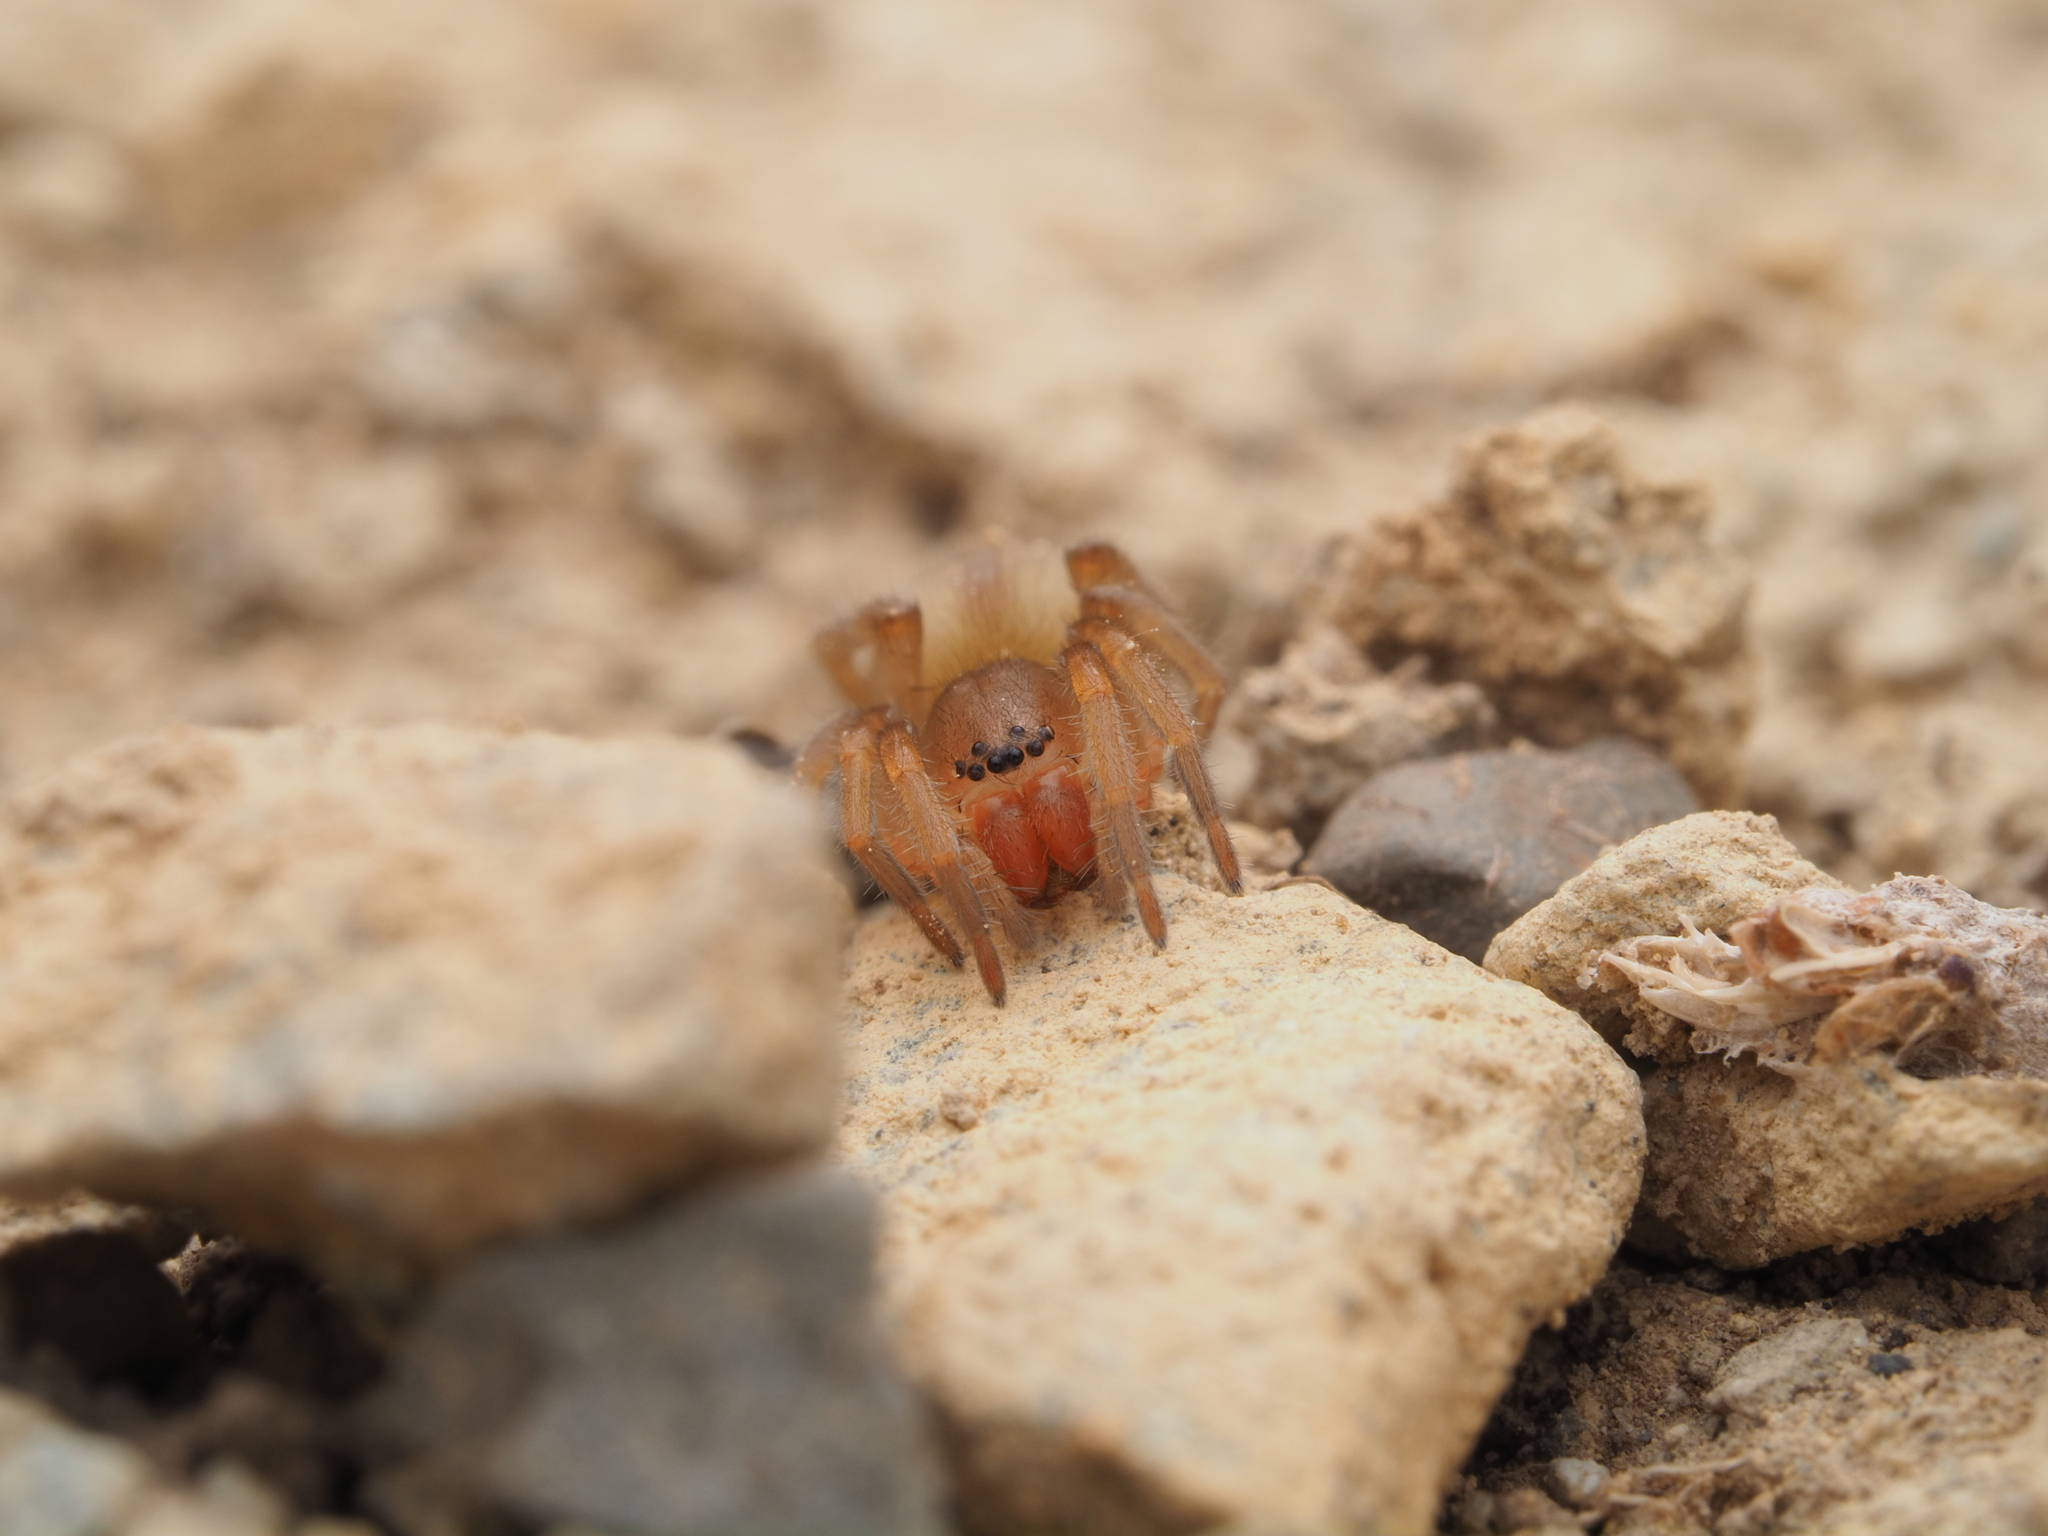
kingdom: Animalia
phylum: Arthropoda
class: Arachnida
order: Araneae
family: Clubionidae
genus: Clubiona
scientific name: Clubiona contrita
